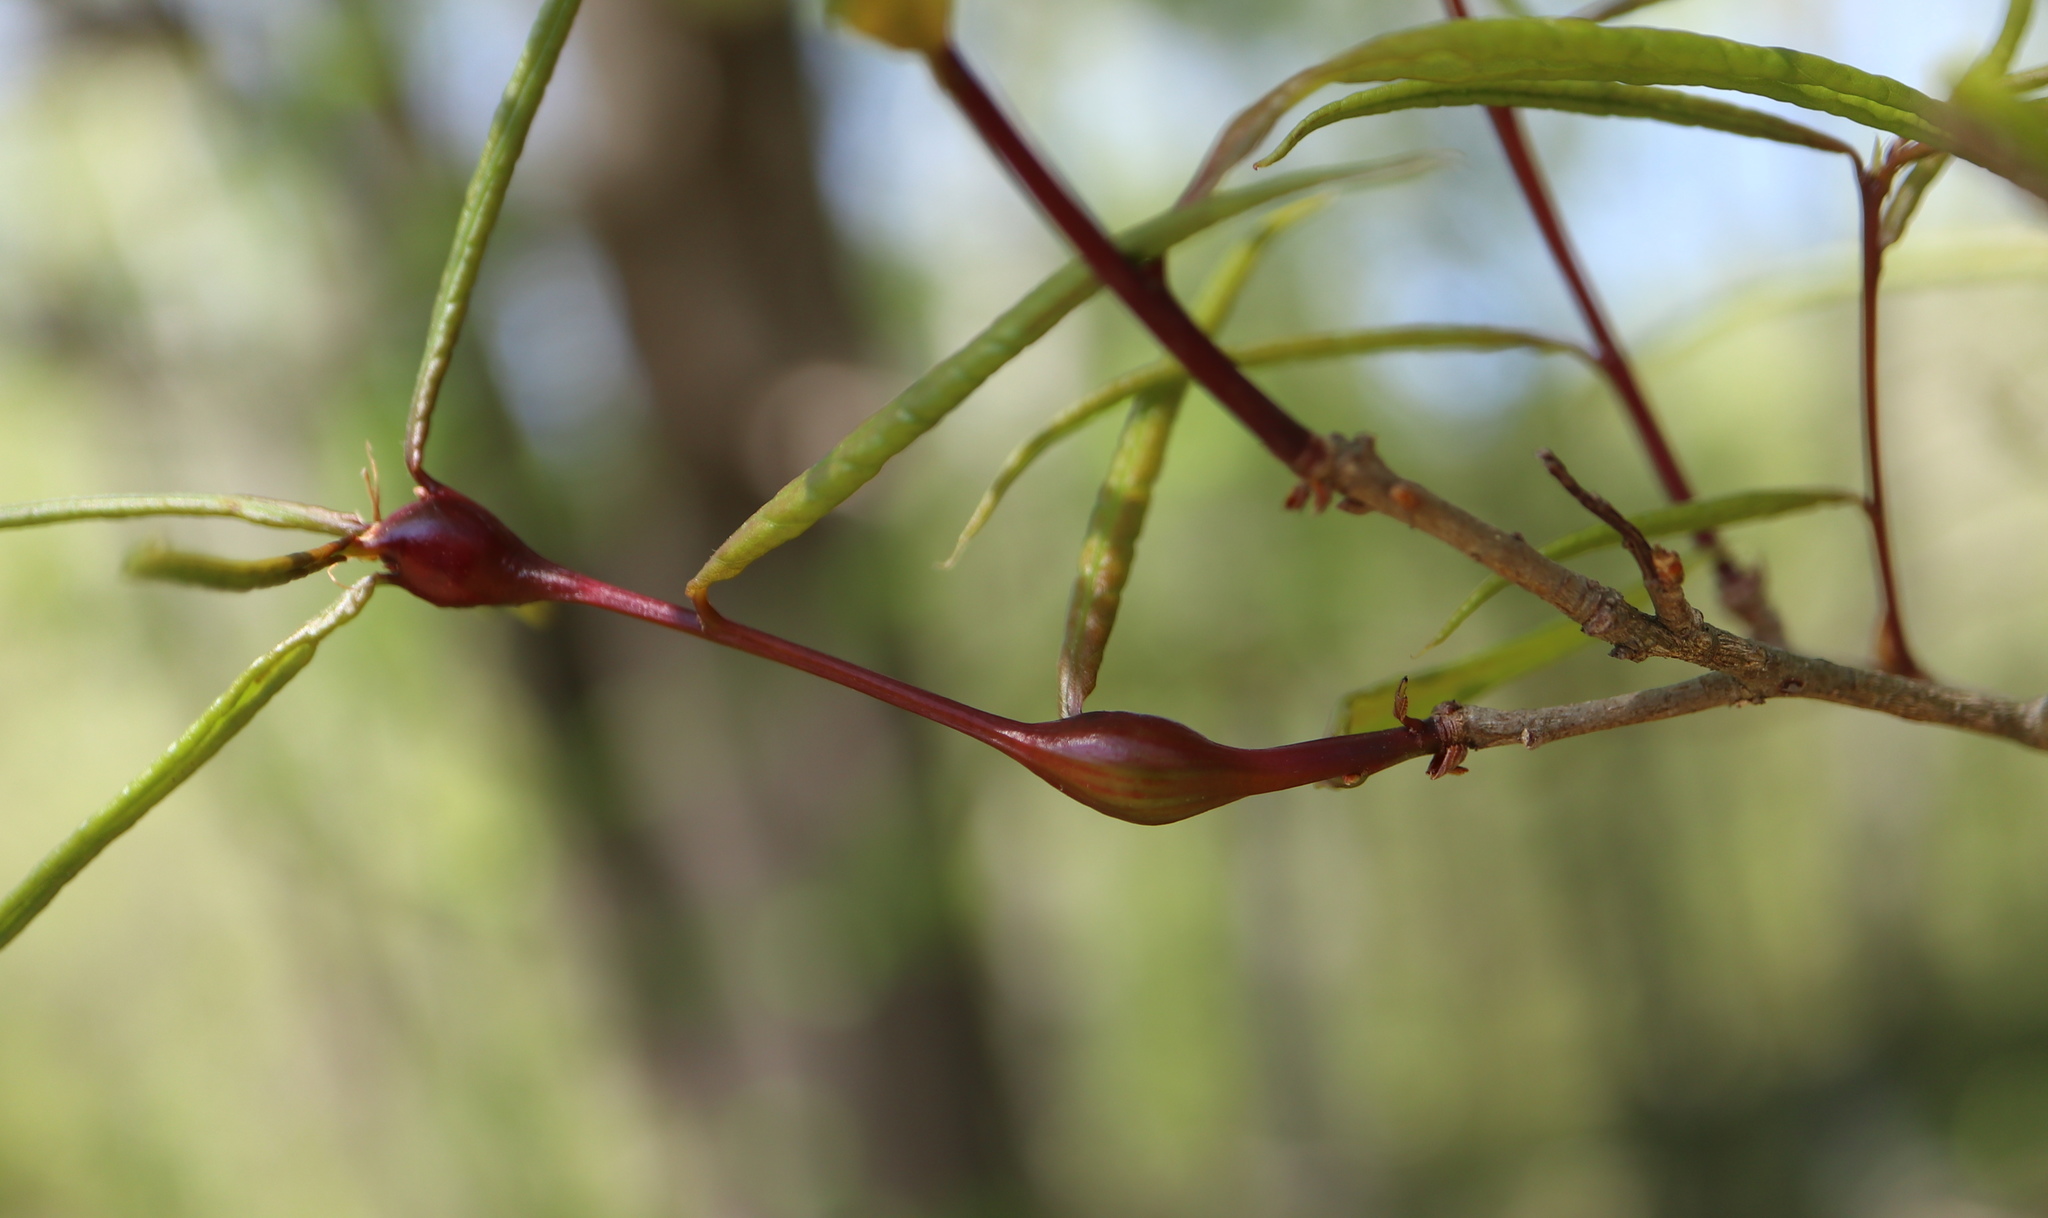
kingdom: Animalia
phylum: Arthropoda
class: Insecta
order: Hymenoptera
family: Cynipidae
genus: Zapatella
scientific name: Zapatella quercusphellos
